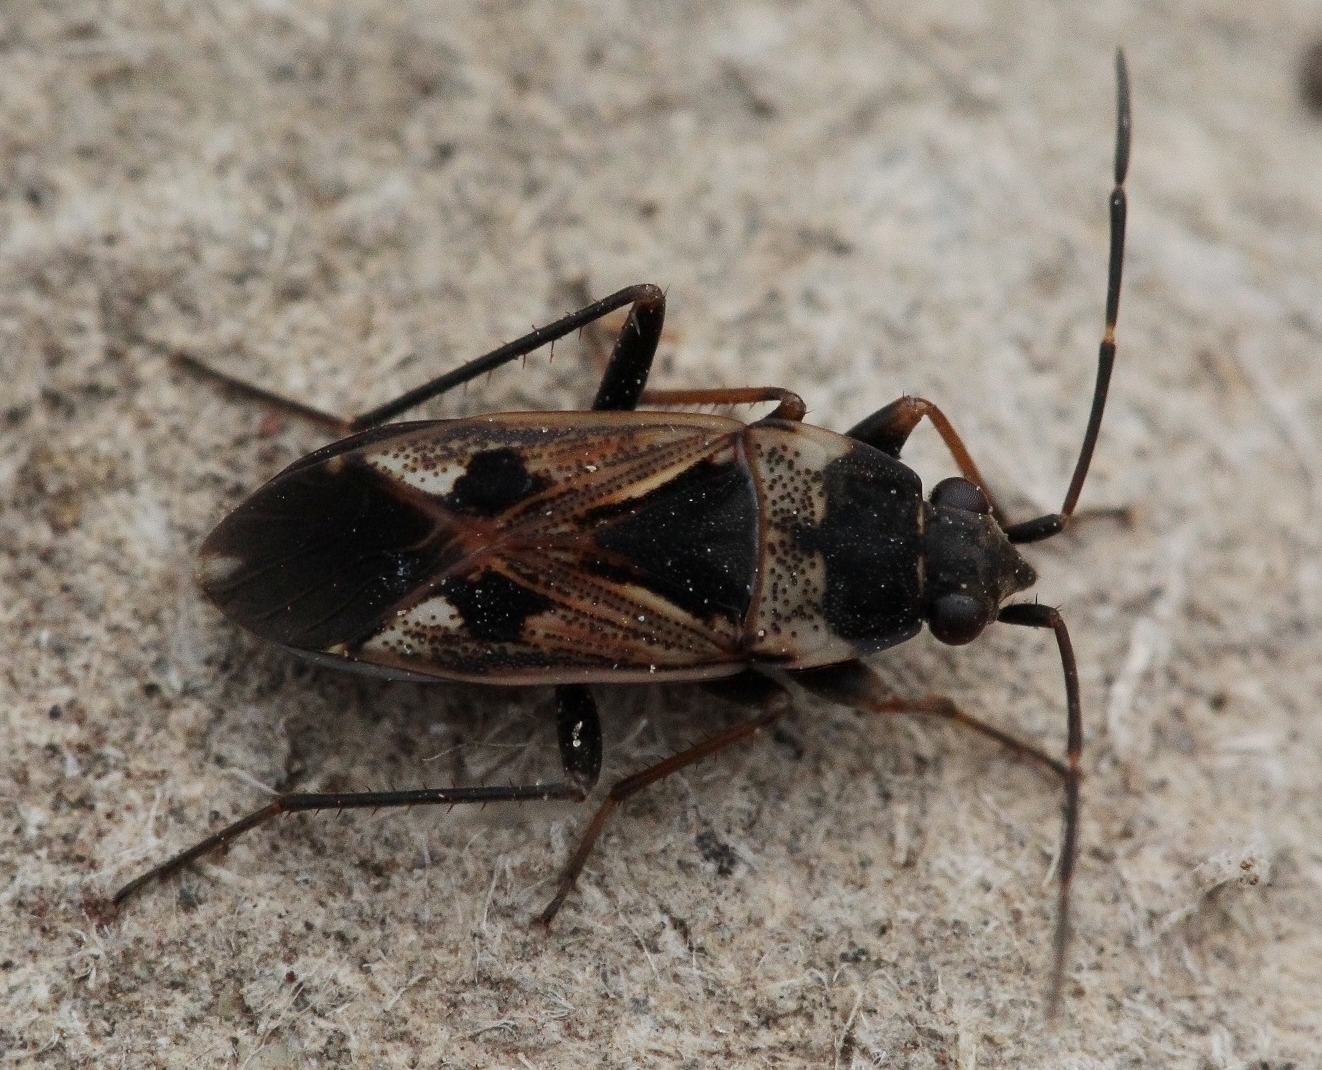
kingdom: Animalia
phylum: Arthropoda
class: Insecta
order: Hemiptera
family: Rhyparochromidae
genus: Rhyparochromus
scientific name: Rhyparochromus vulgaris
